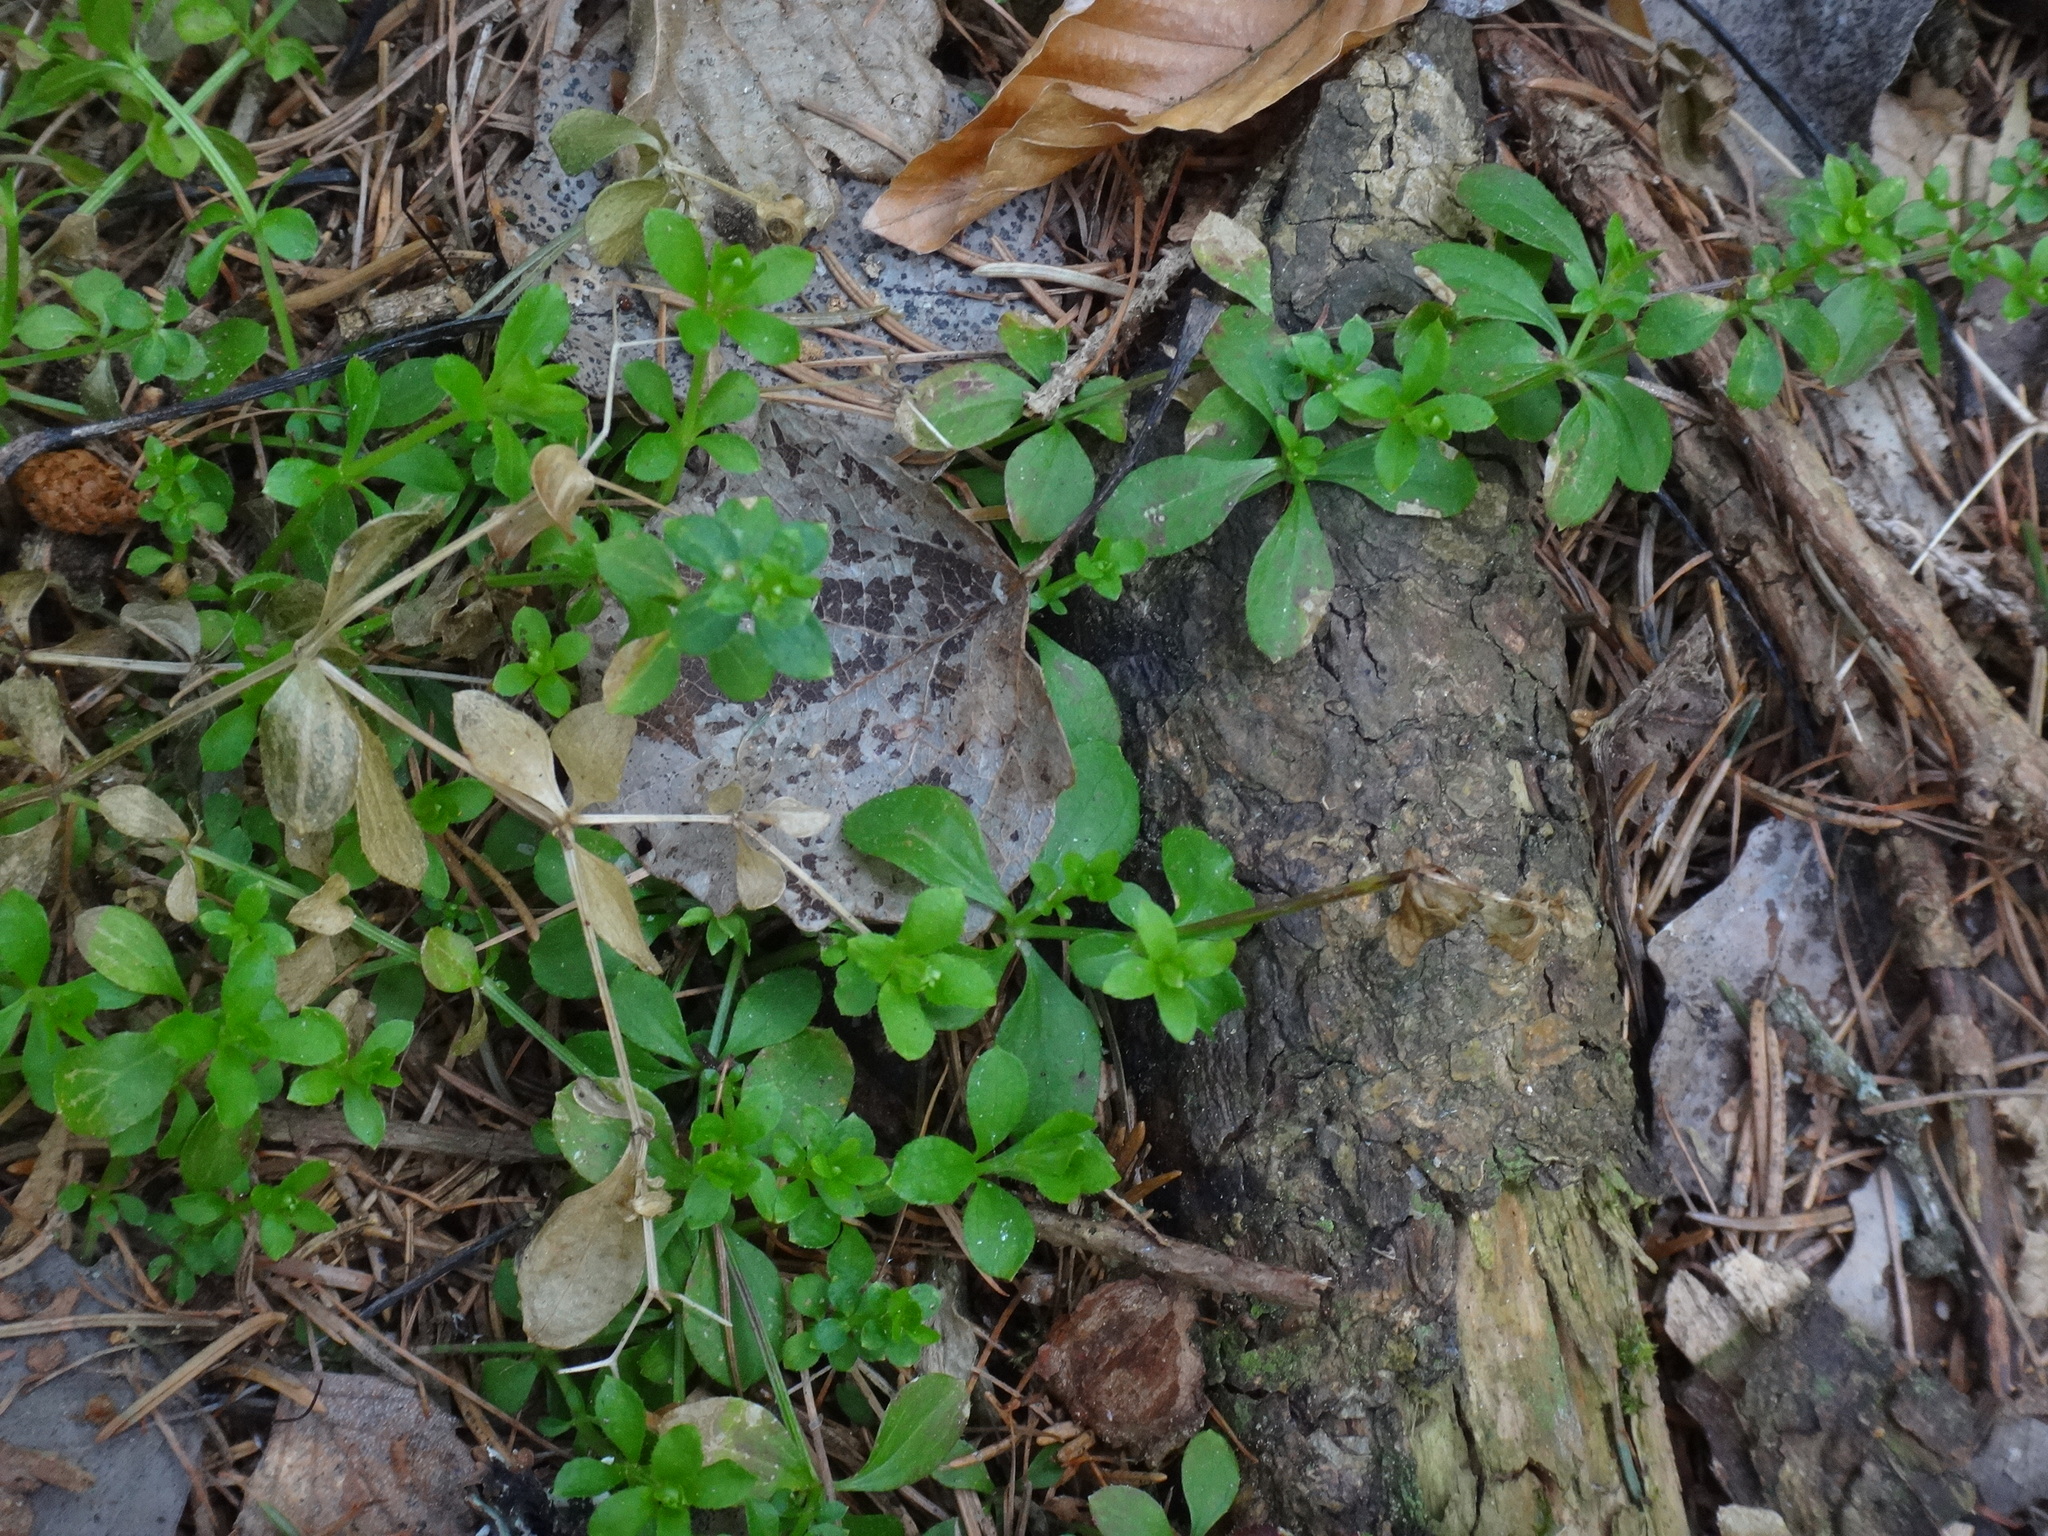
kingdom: Plantae
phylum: Tracheophyta
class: Magnoliopsida
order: Gentianales
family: Rubiaceae
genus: Galium
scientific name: Galium rotundifolium
